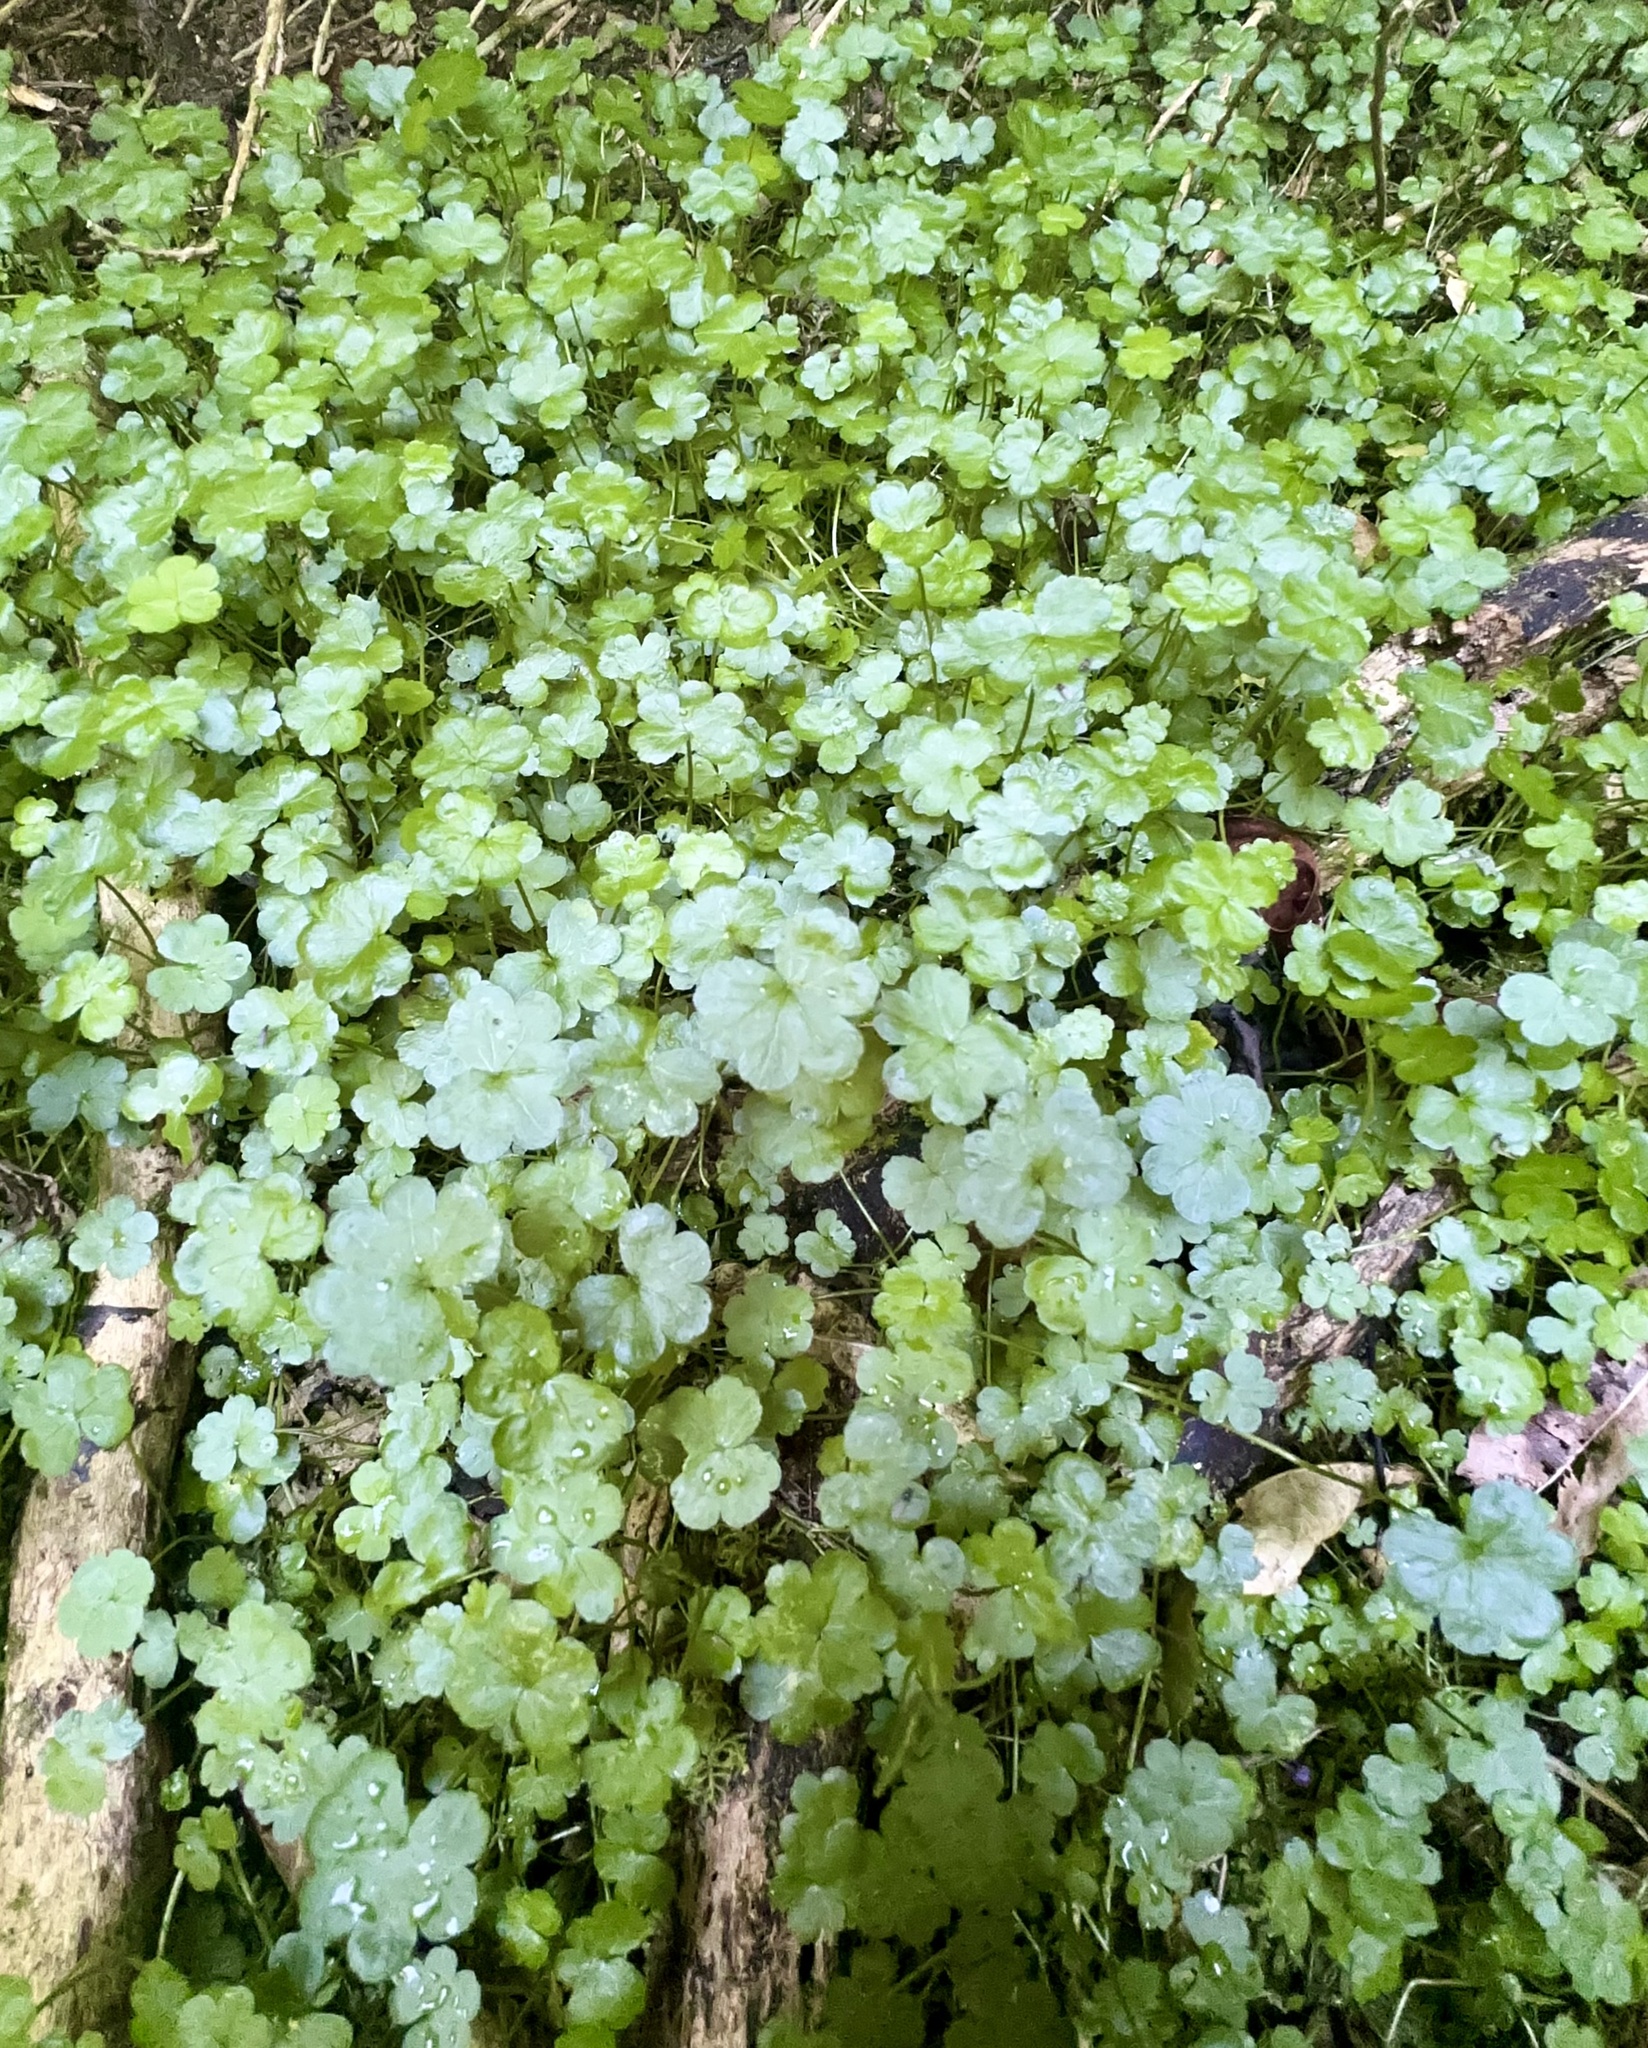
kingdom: Plantae
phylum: Tracheophyta
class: Magnoliopsida
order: Apiales
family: Araliaceae
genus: Hydrocotyle
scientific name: Hydrocotyle heteromeria
